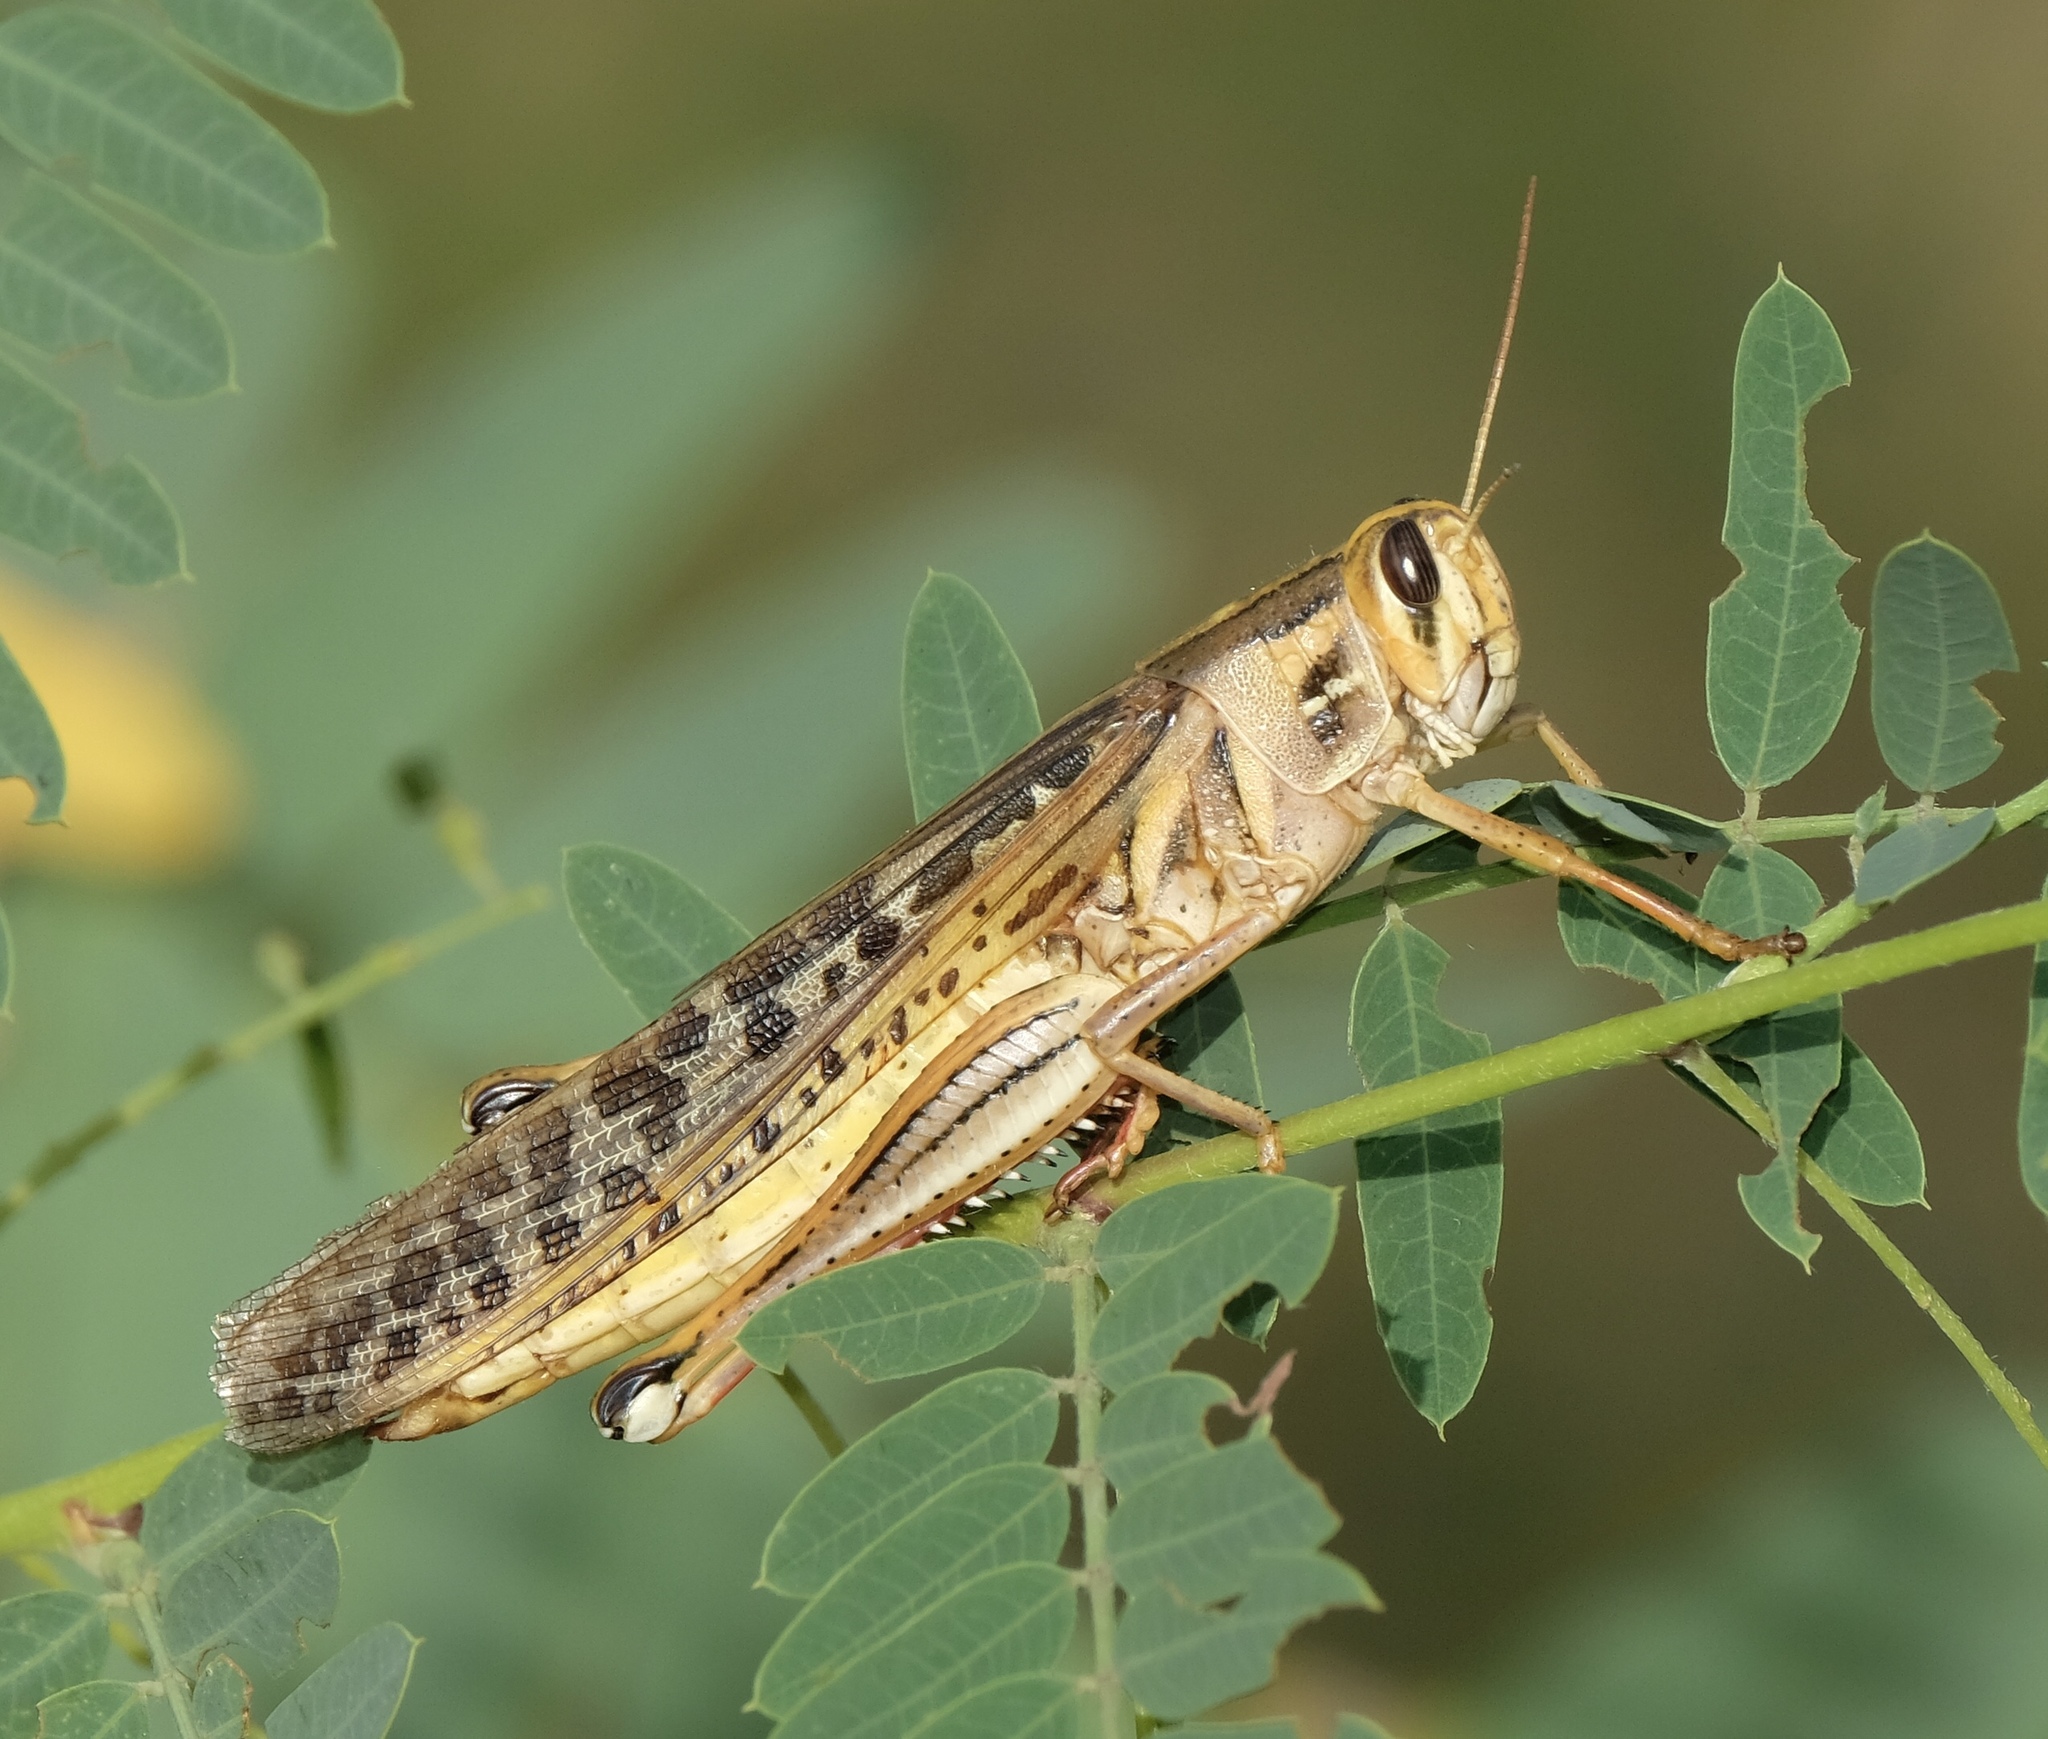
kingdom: Animalia
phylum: Arthropoda
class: Insecta
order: Orthoptera
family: Acrididae
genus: Schistocerca
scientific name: Schistocerca americana
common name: American bird locust
